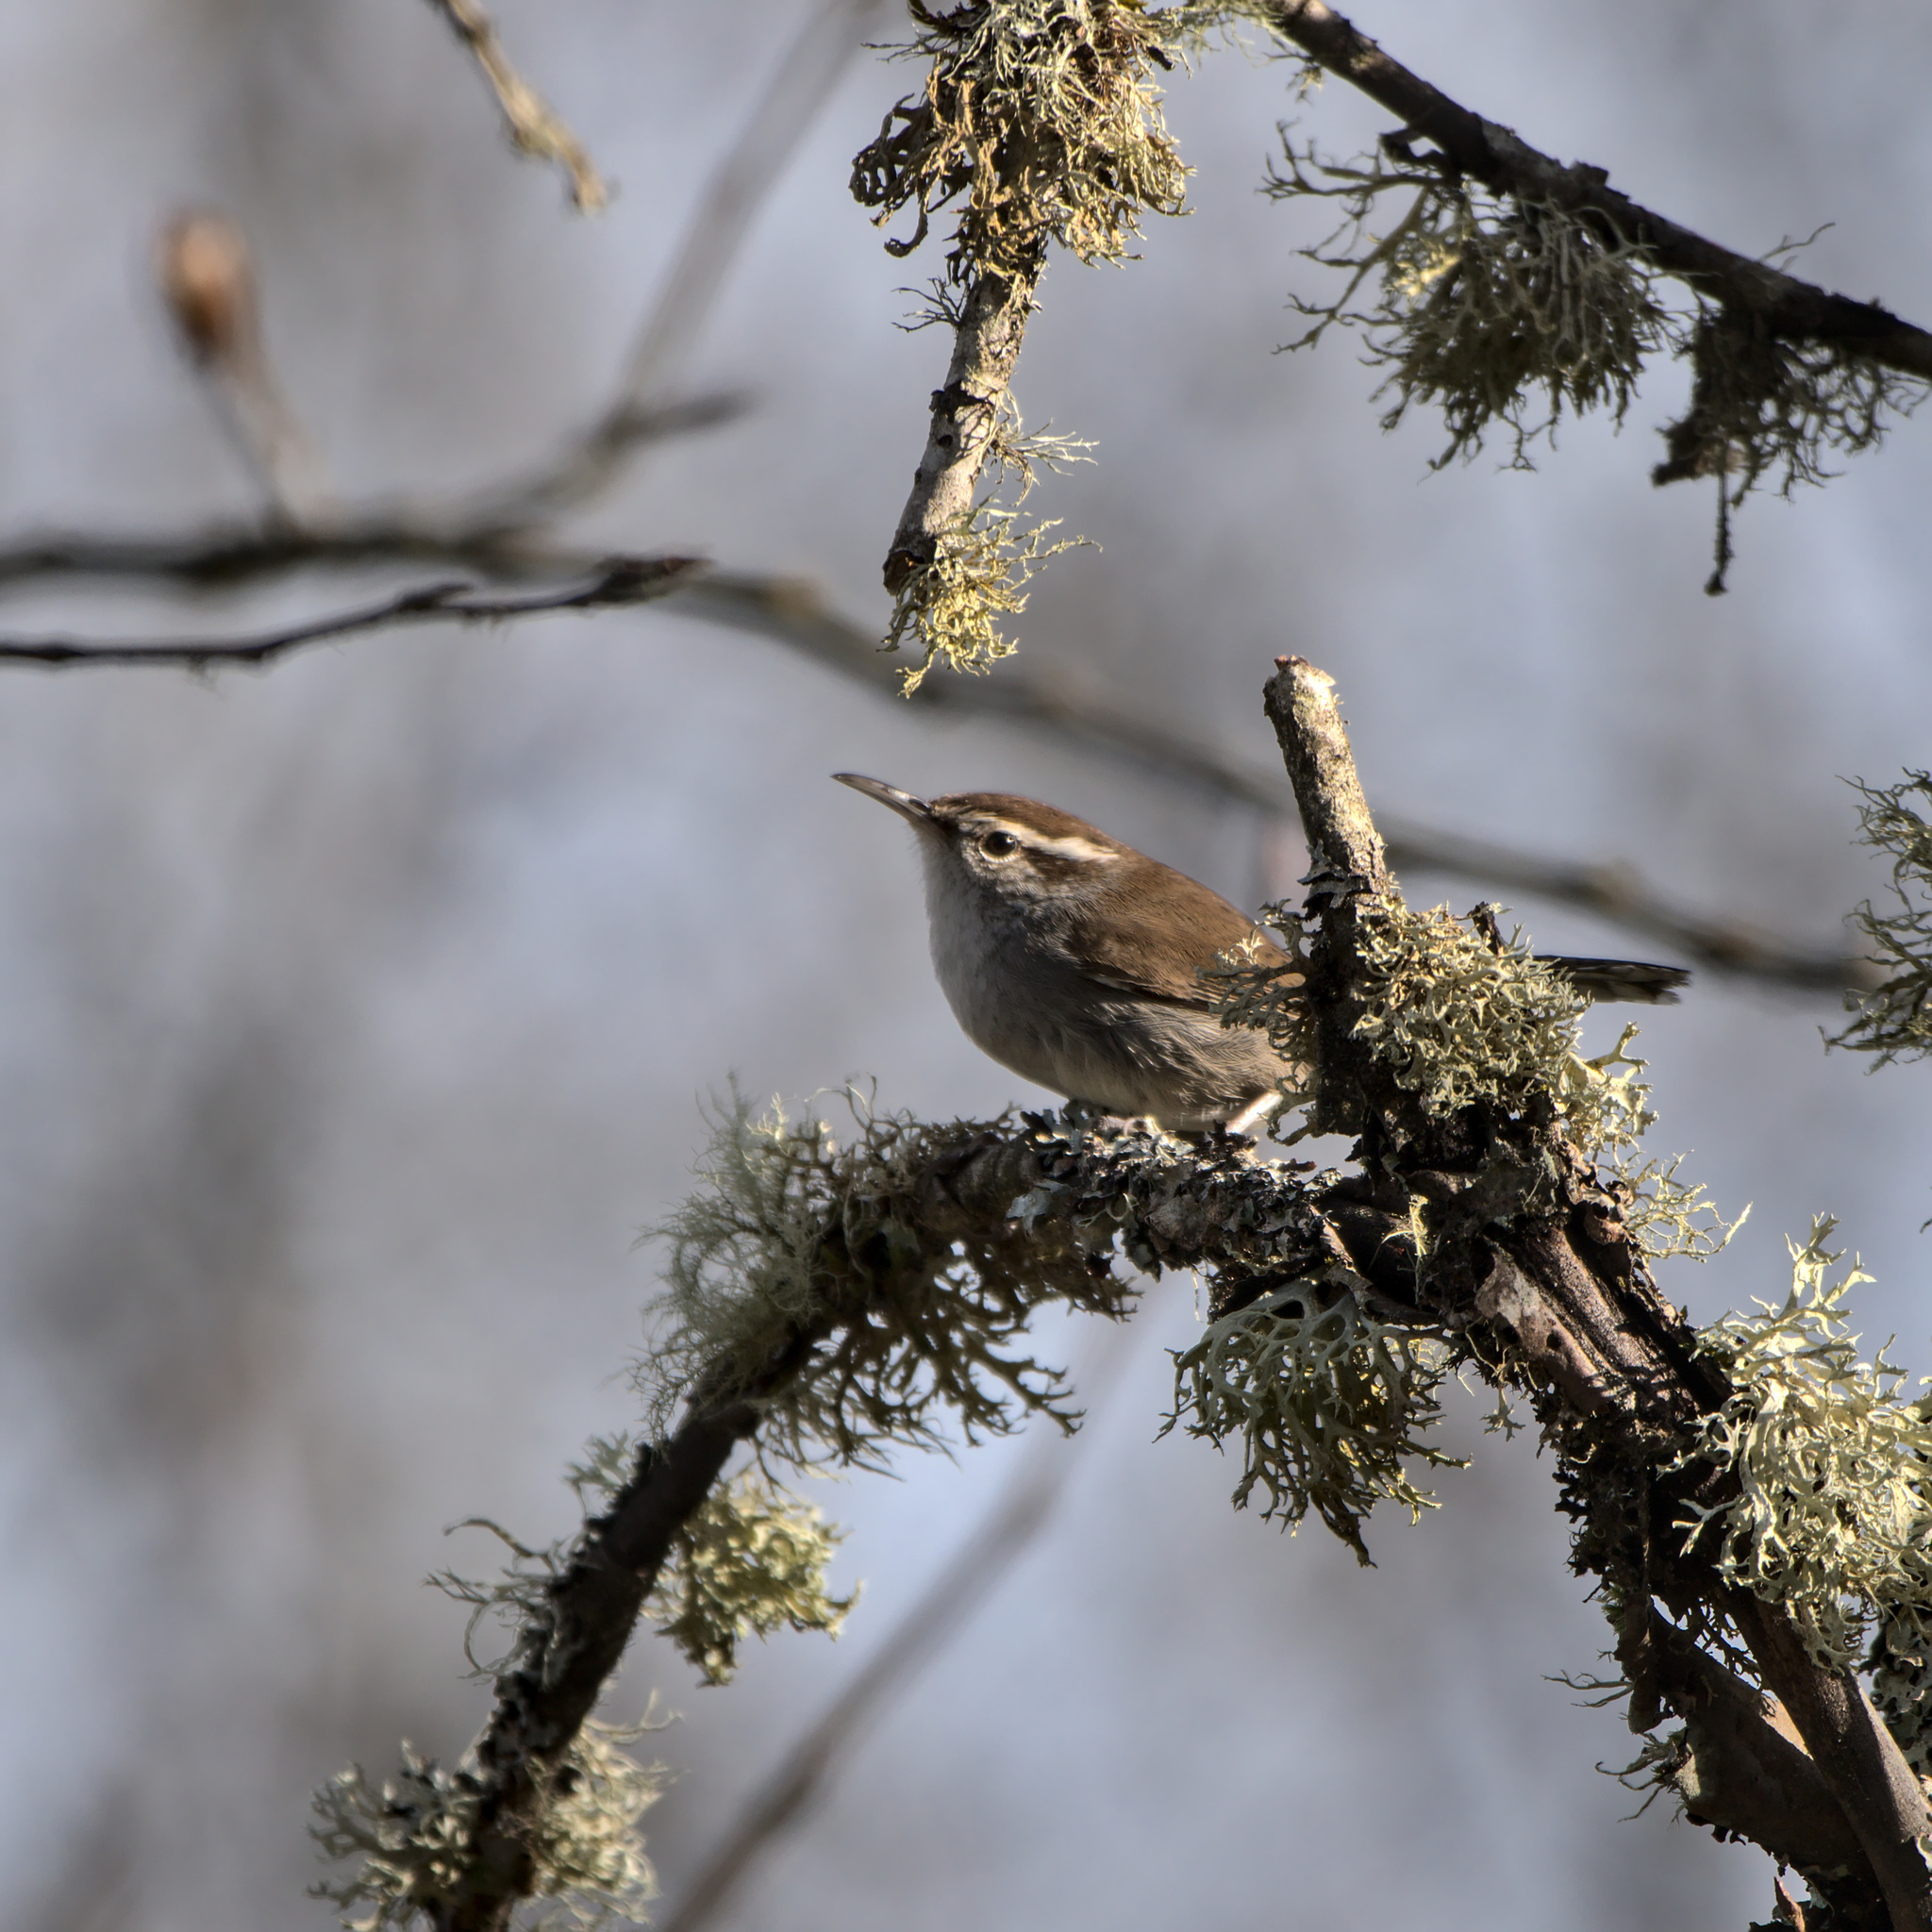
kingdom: Animalia
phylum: Chordata
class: Aves
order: Passeriformes
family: Troglodytidae
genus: Thryomanes
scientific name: Thryomanes bewickii
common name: Bewick's wren
